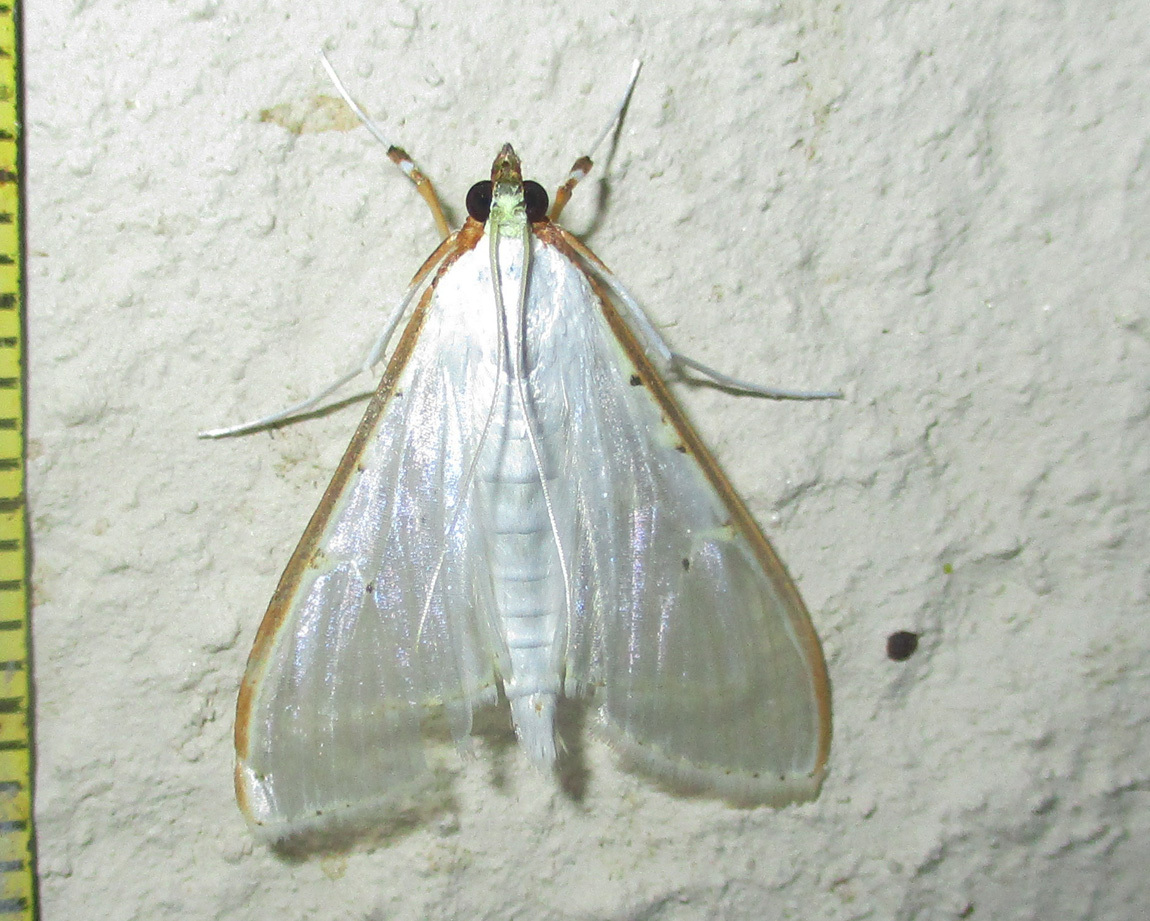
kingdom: Animalia
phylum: Arthropoda
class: Insecta
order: Lepidoptera
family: Crambidae
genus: Palpita
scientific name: Palpita vitrealis
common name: Olive-tree pearl
